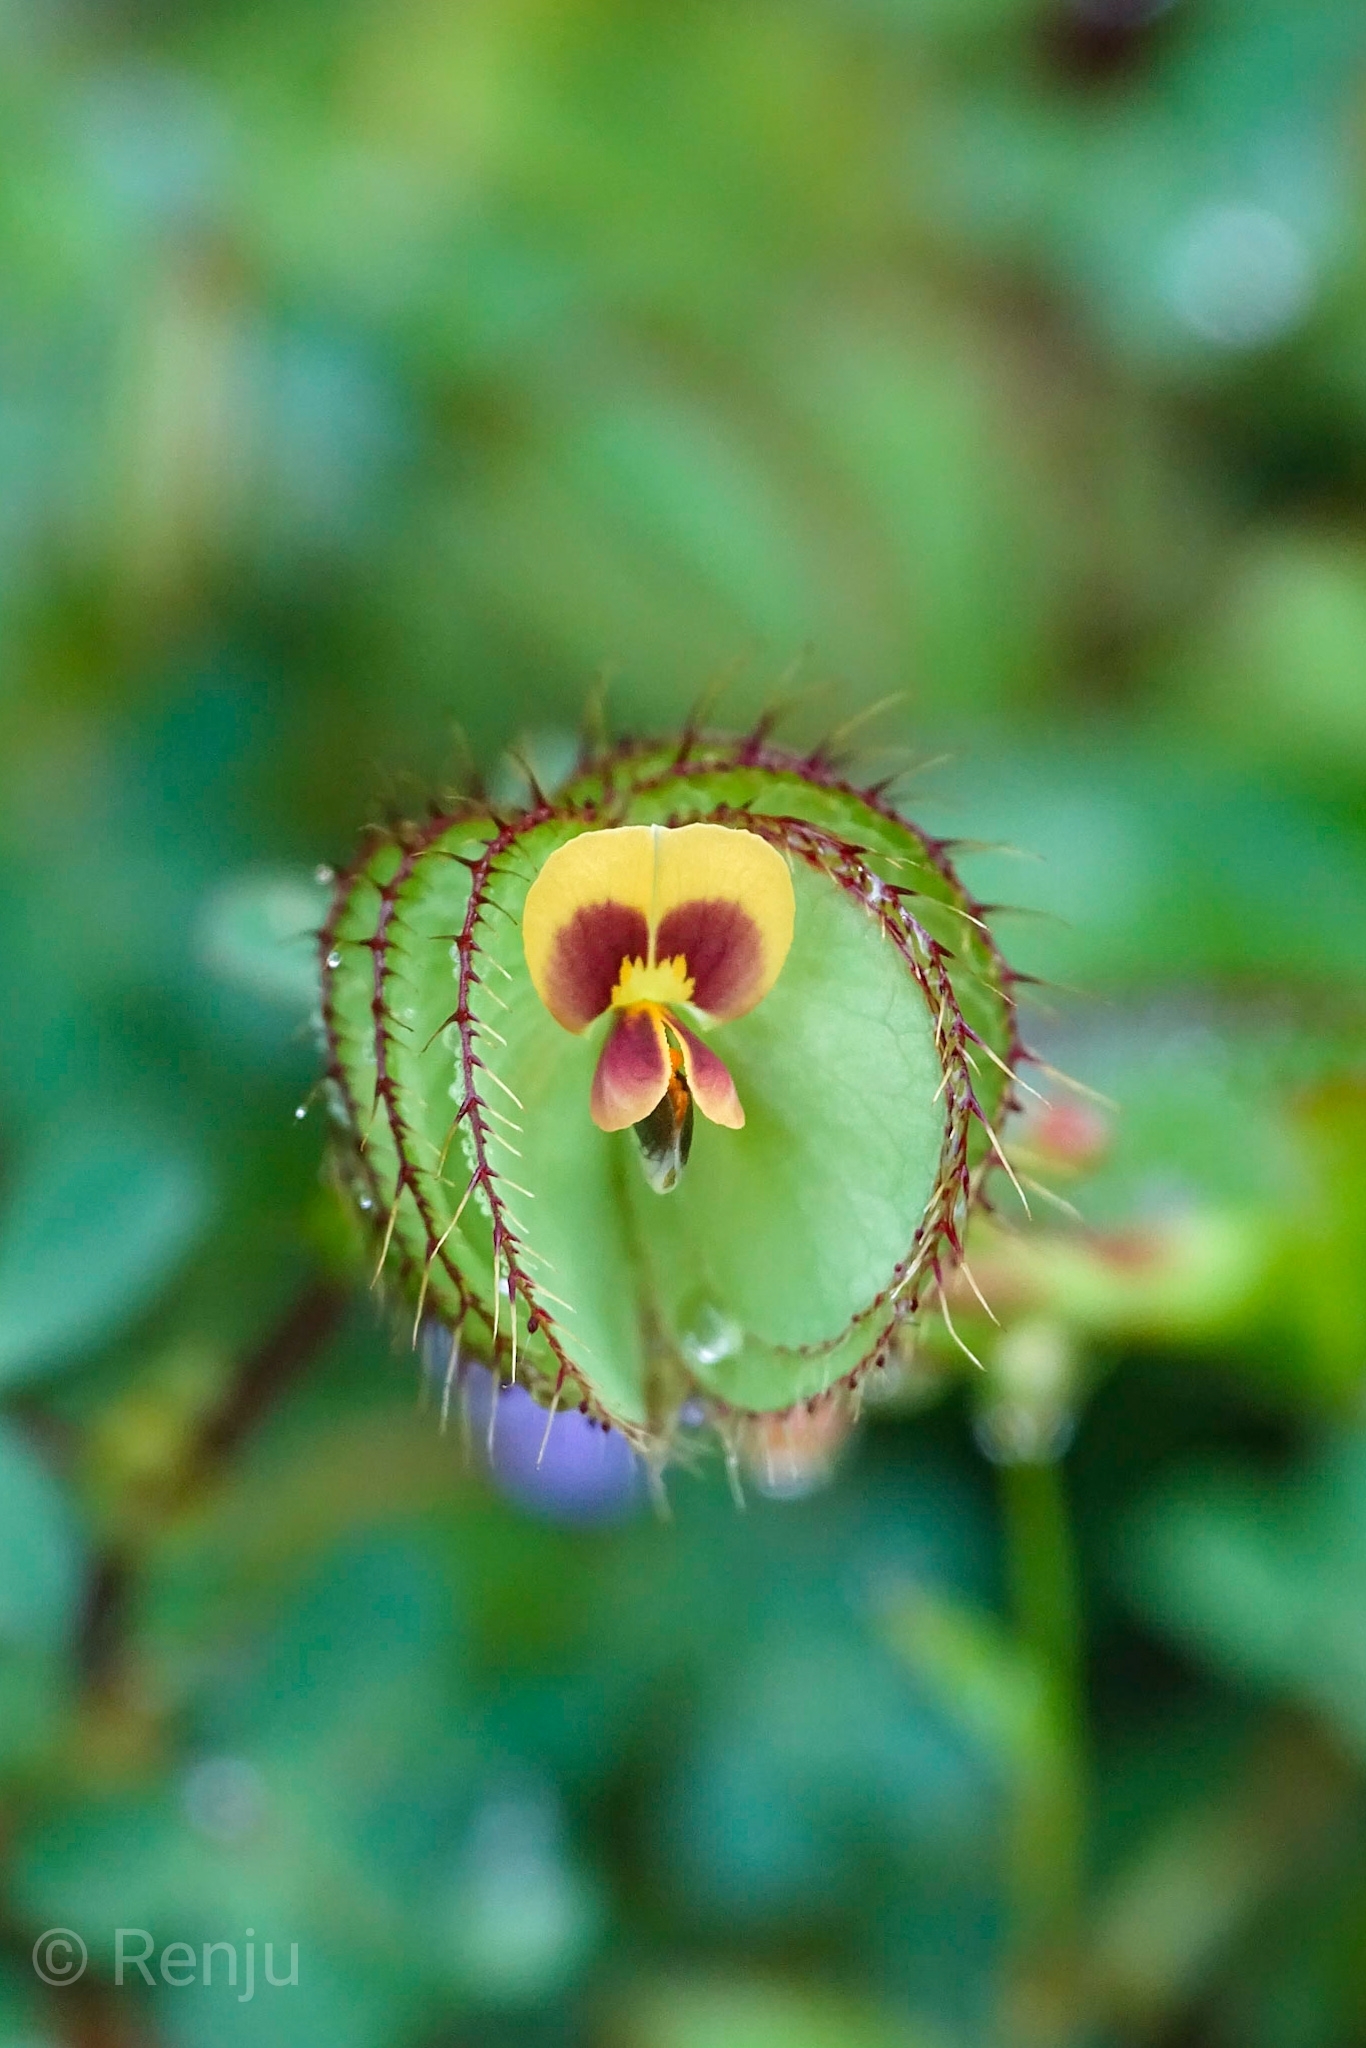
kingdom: Plantae
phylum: Tracheophyta
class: Magnoliopsida
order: Fabales
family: Fabaceae
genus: Geissaspis
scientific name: Geissaspis cristata
